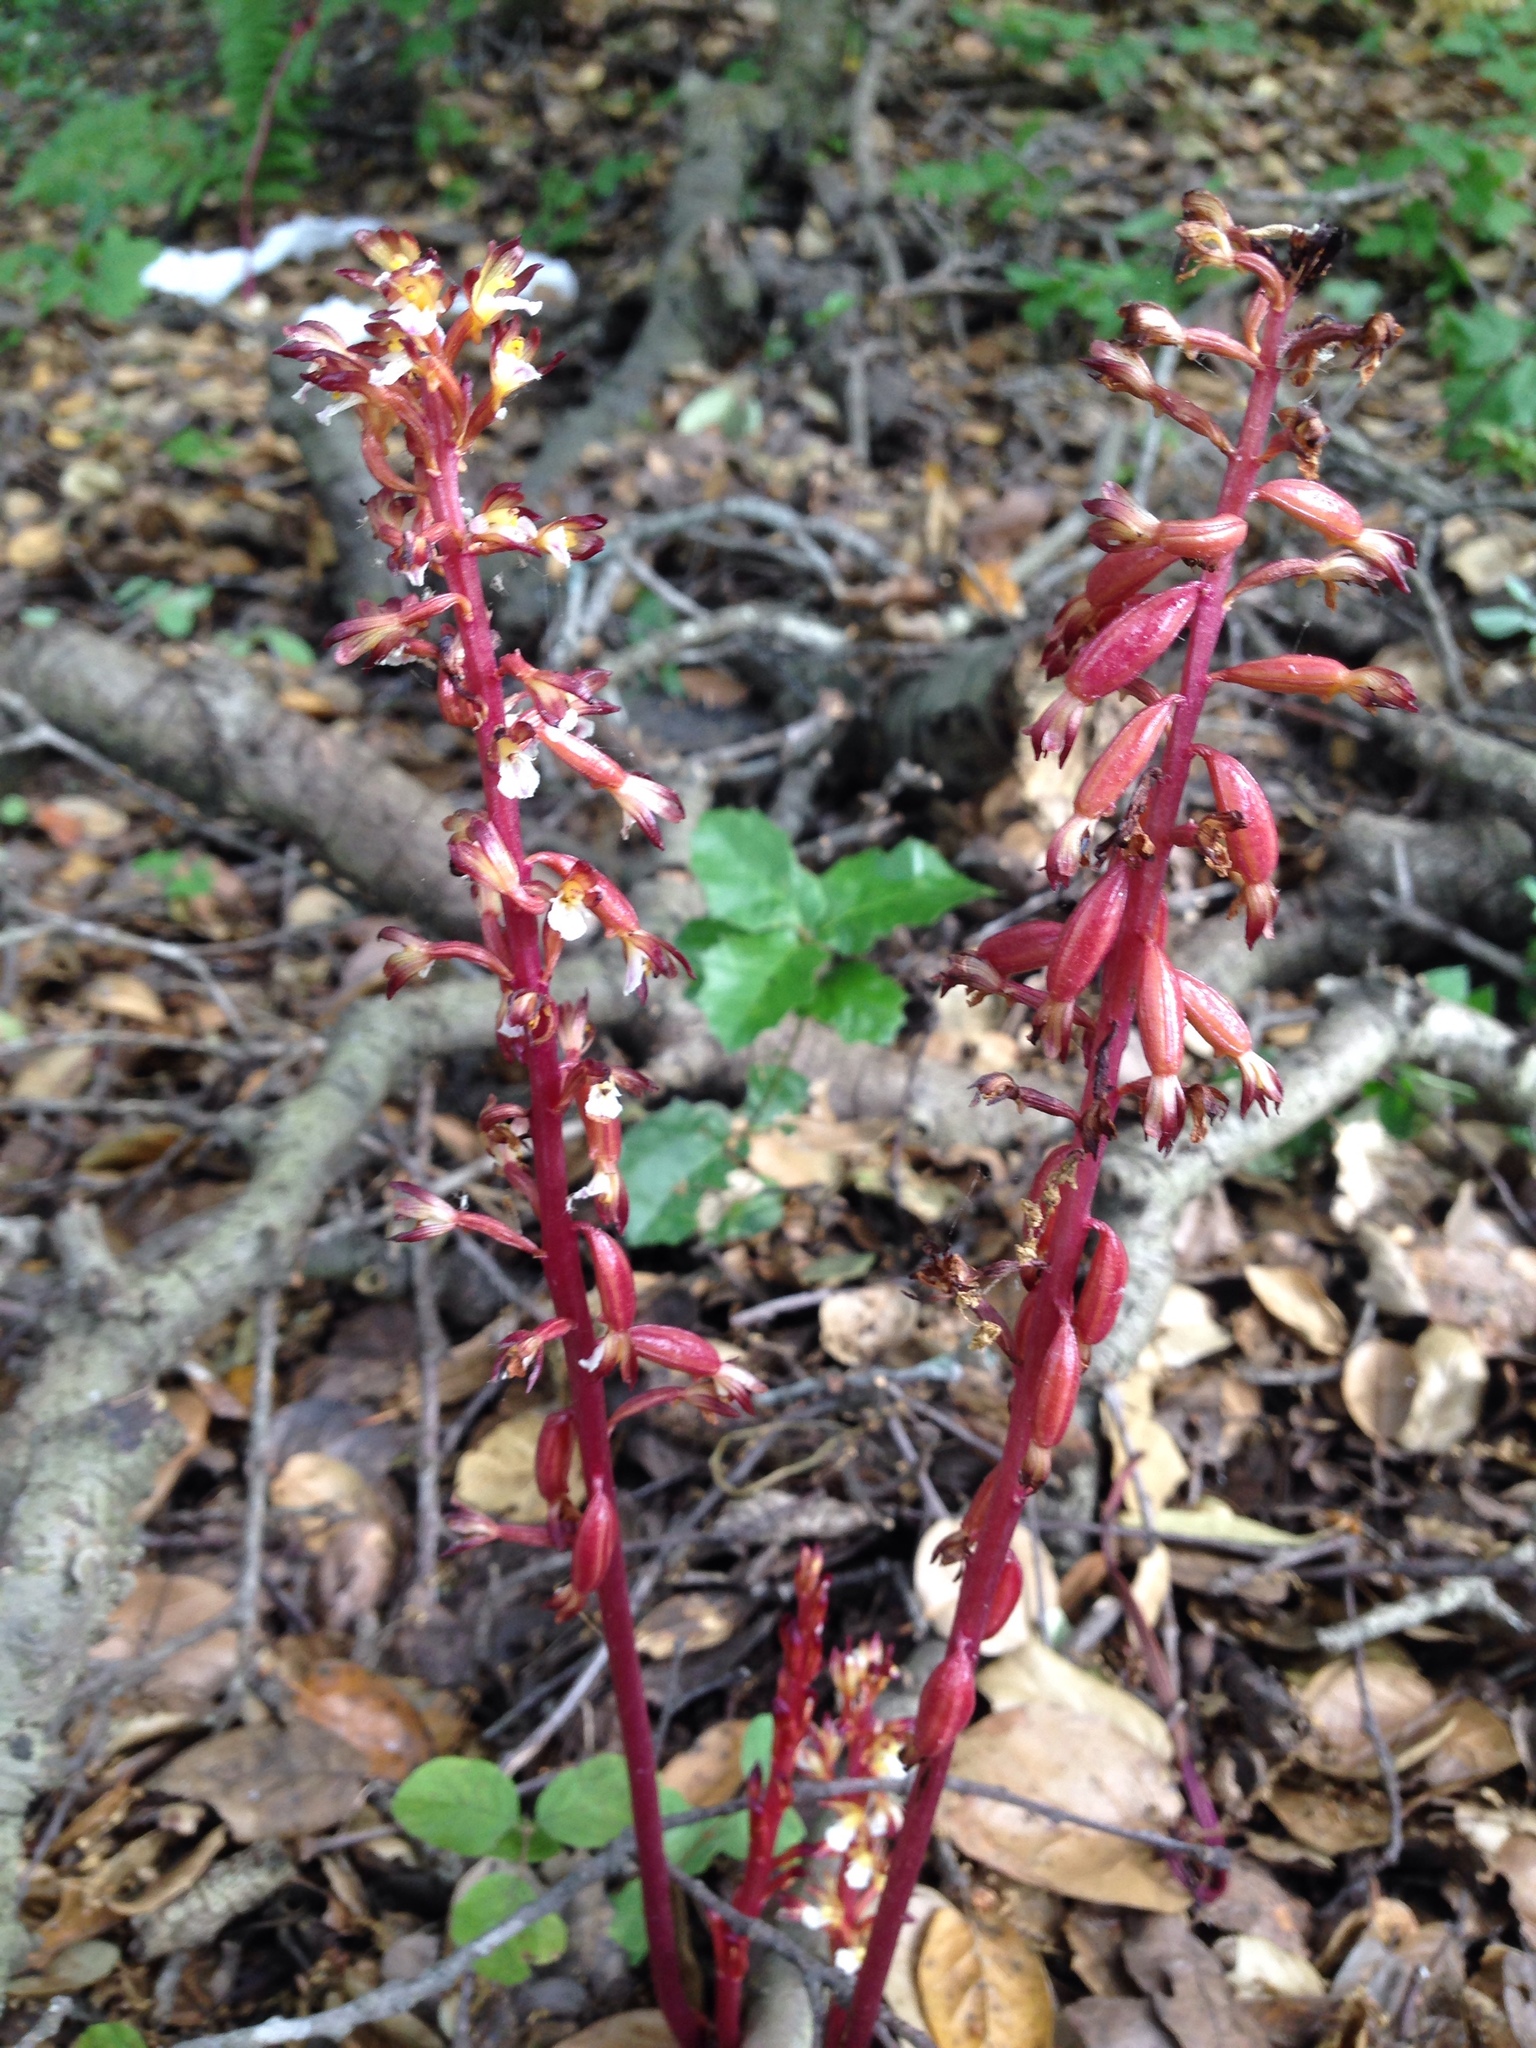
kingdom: Plantae
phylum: Tracheophyta
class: Liliopsida
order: Asparagales
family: Orchidaceae
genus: Corallorhiza
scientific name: Corallorhiza maculata
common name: Spotted coralroot
